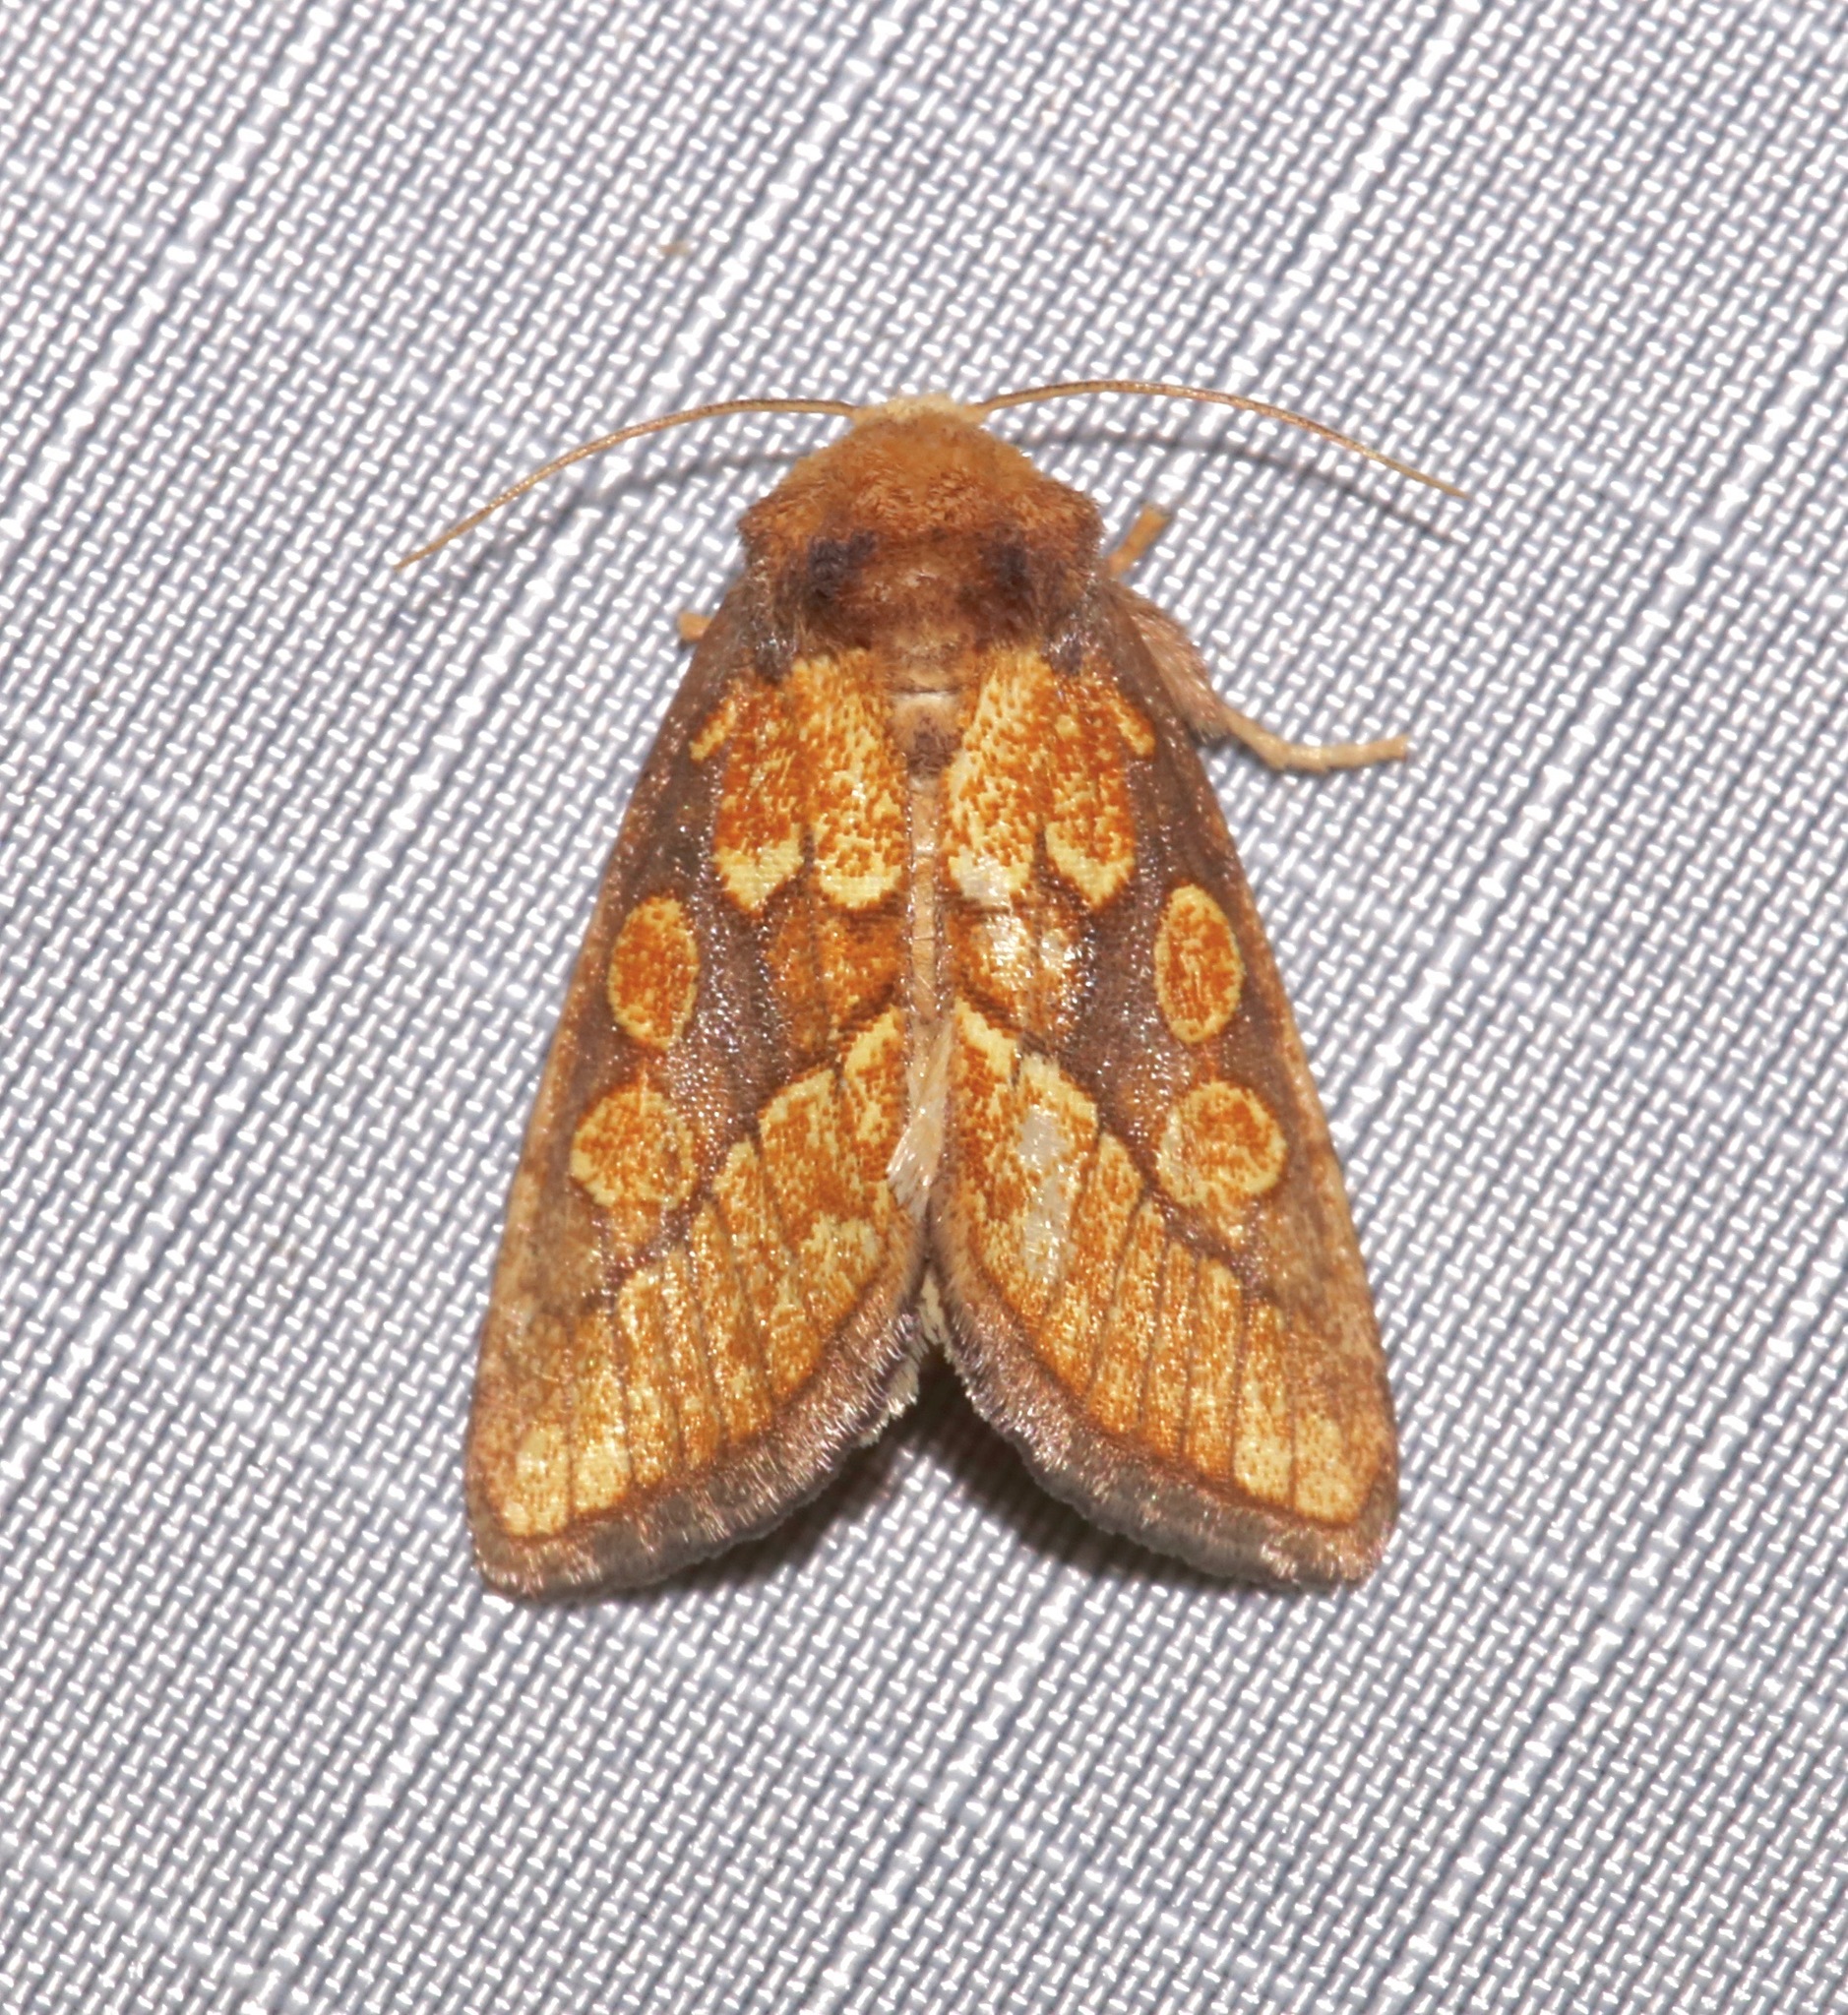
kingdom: Animalia
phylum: Arthropoda
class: Insecta
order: Lepidoptera
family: Noctuidae
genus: Nocloa
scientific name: Nocloa alcandra
